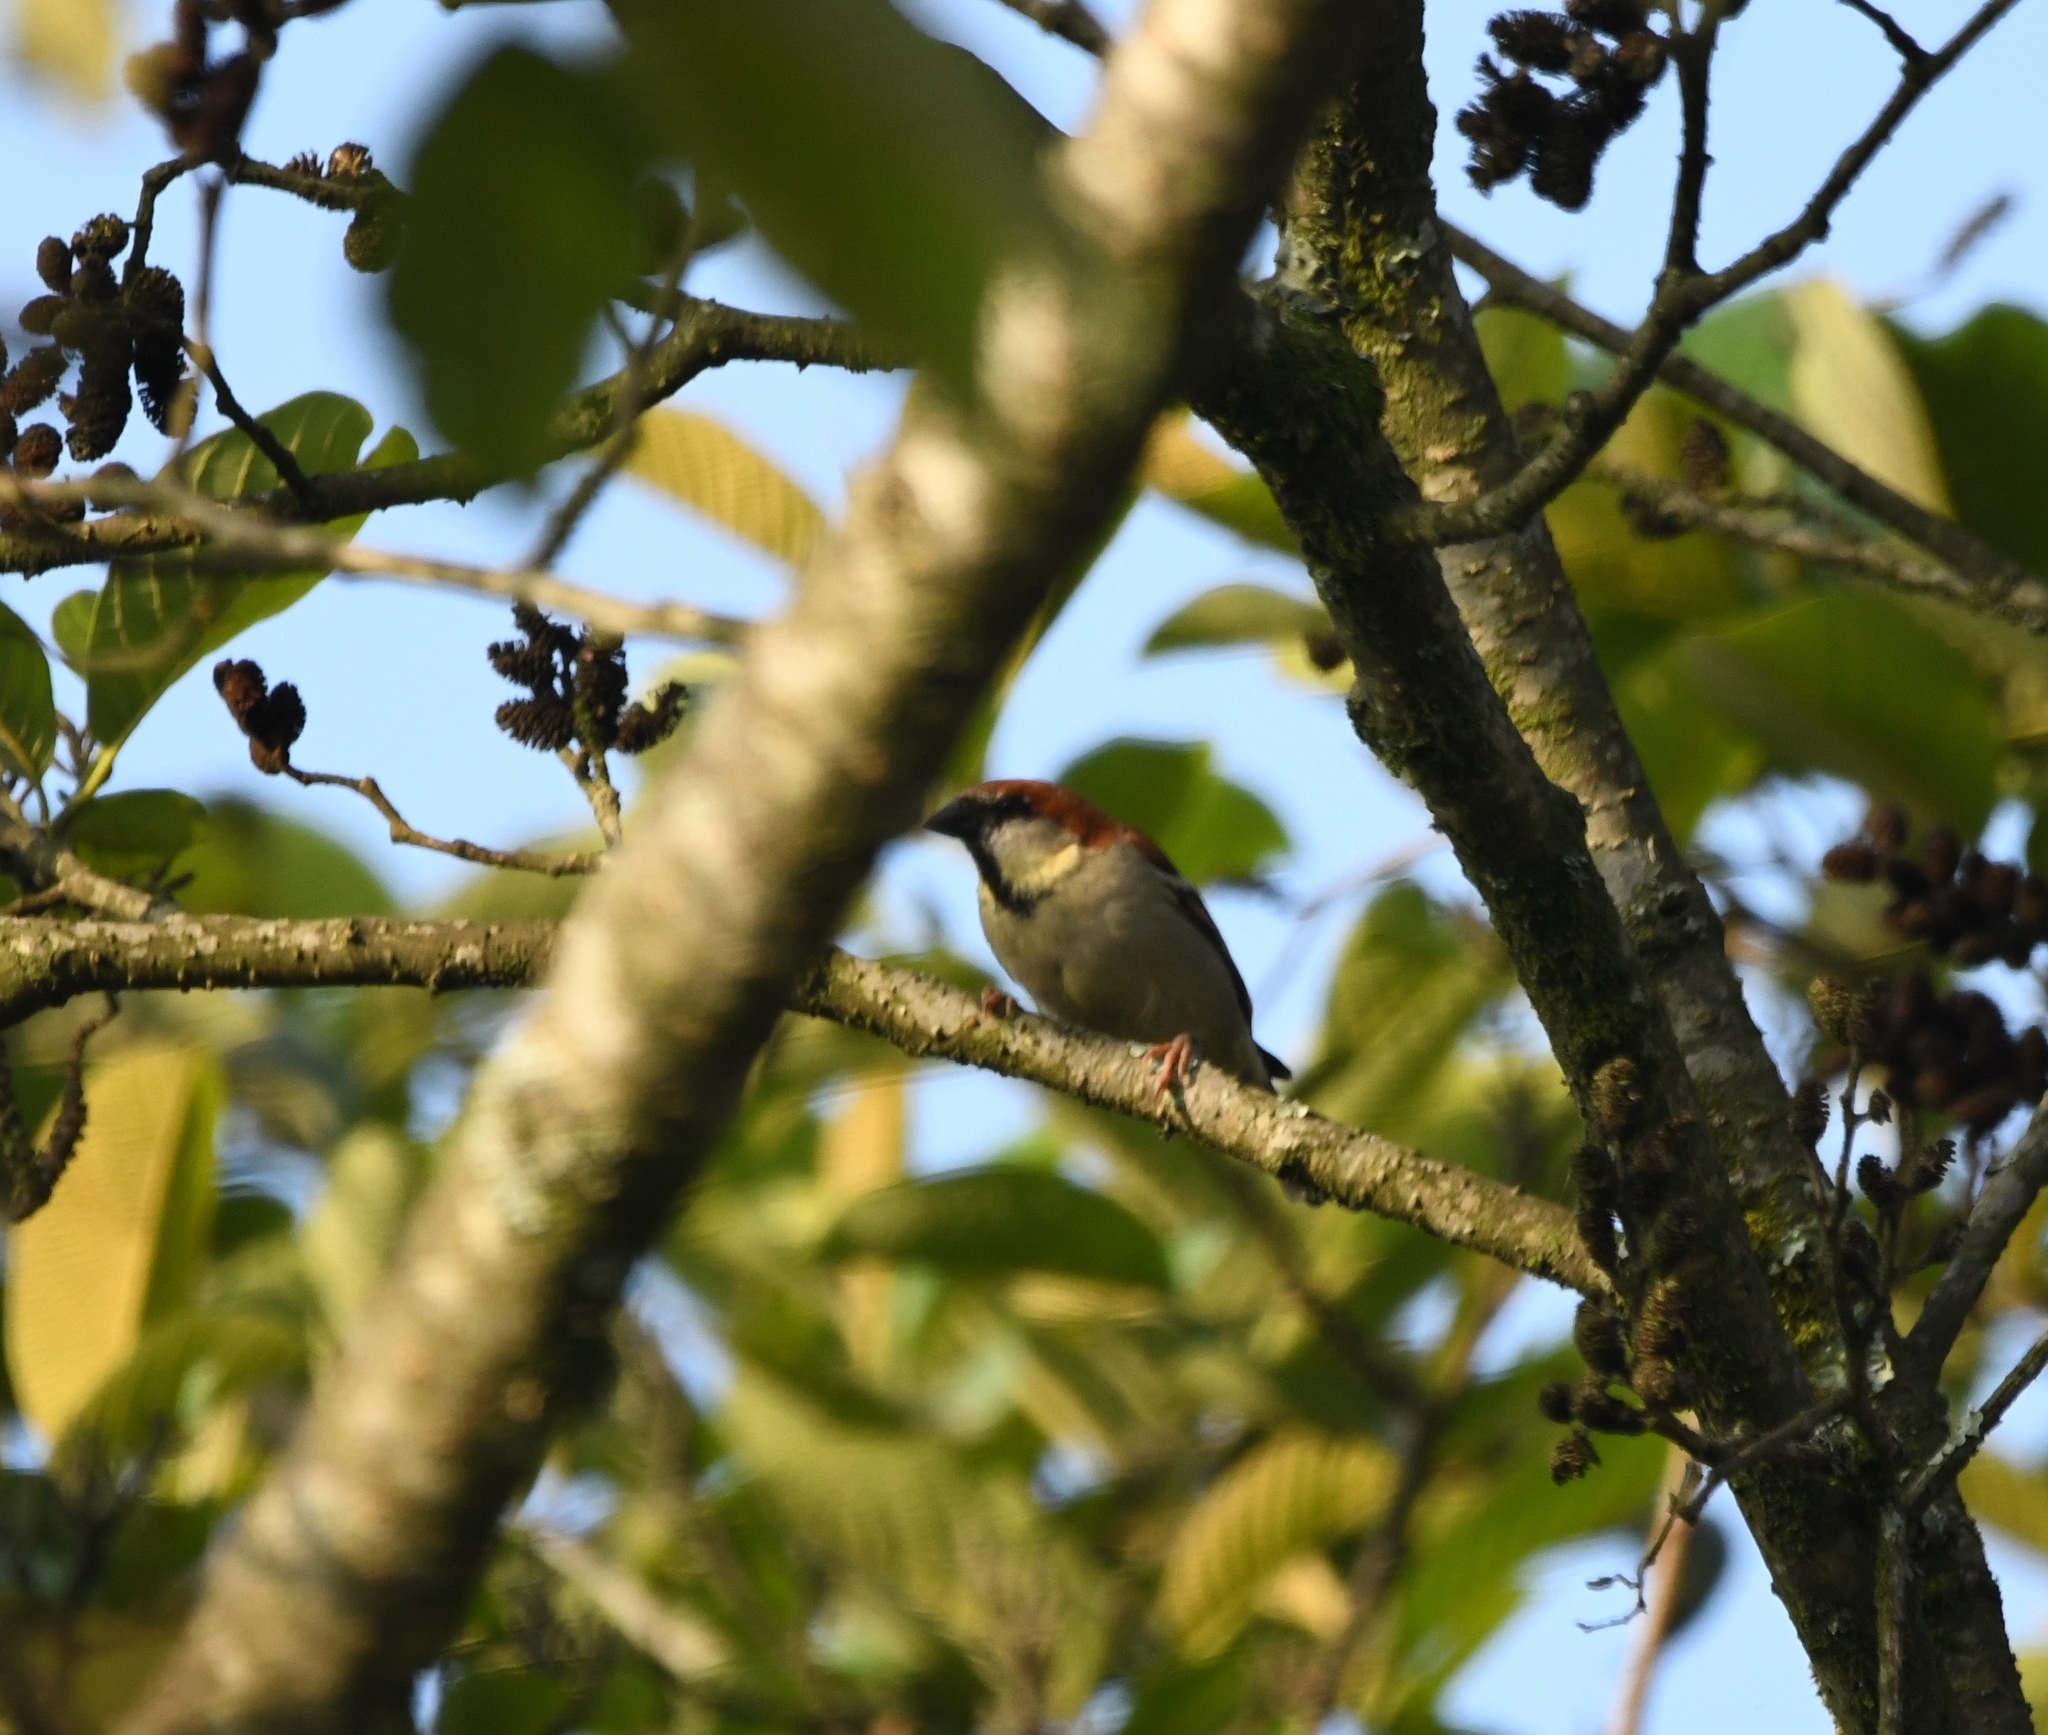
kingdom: Animalia
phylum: Chordata
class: Aves
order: Passeriformes
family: Passeridae
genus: Passer
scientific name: Passer cinnamomeus
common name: Russet sparrow
